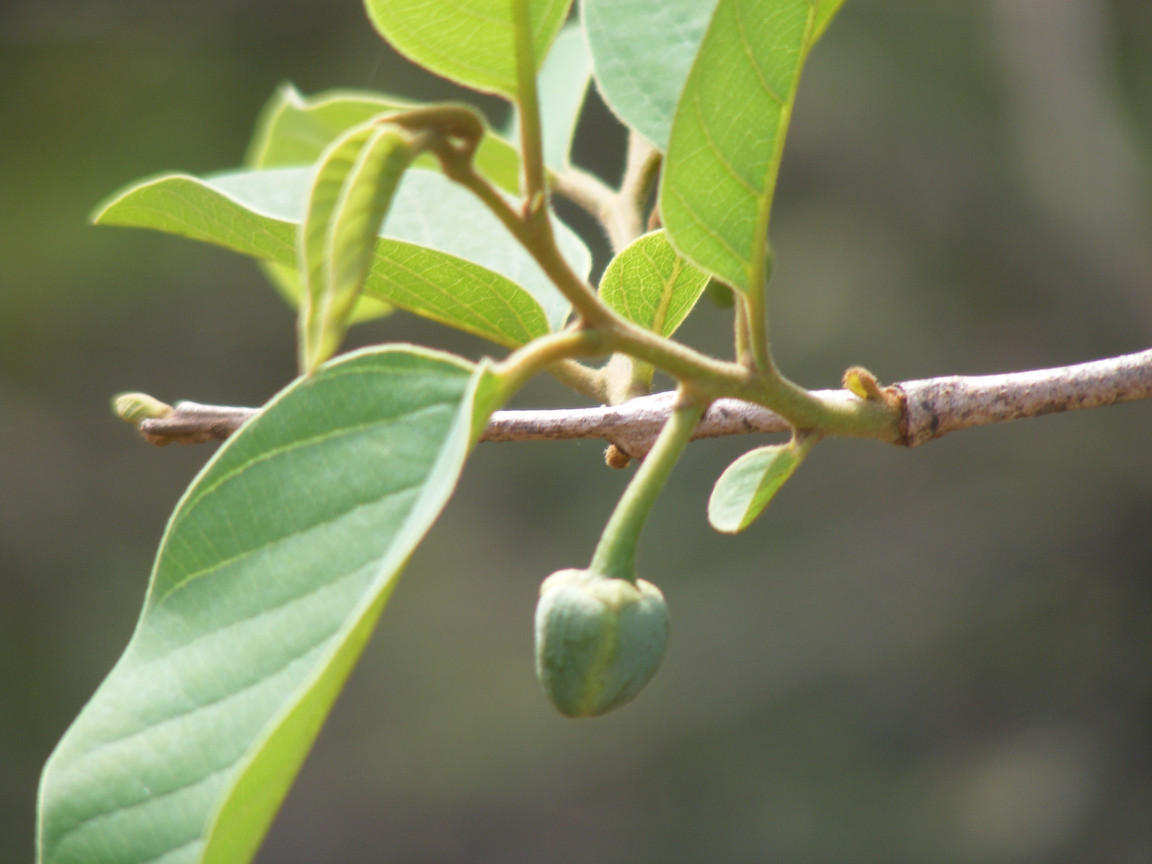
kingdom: Plantae
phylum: Tracheophyta
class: Magnoliopsida
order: Magnoliales
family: Annonaceae
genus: Annona
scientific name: Annona senegalensis
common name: Wild custard-apple
